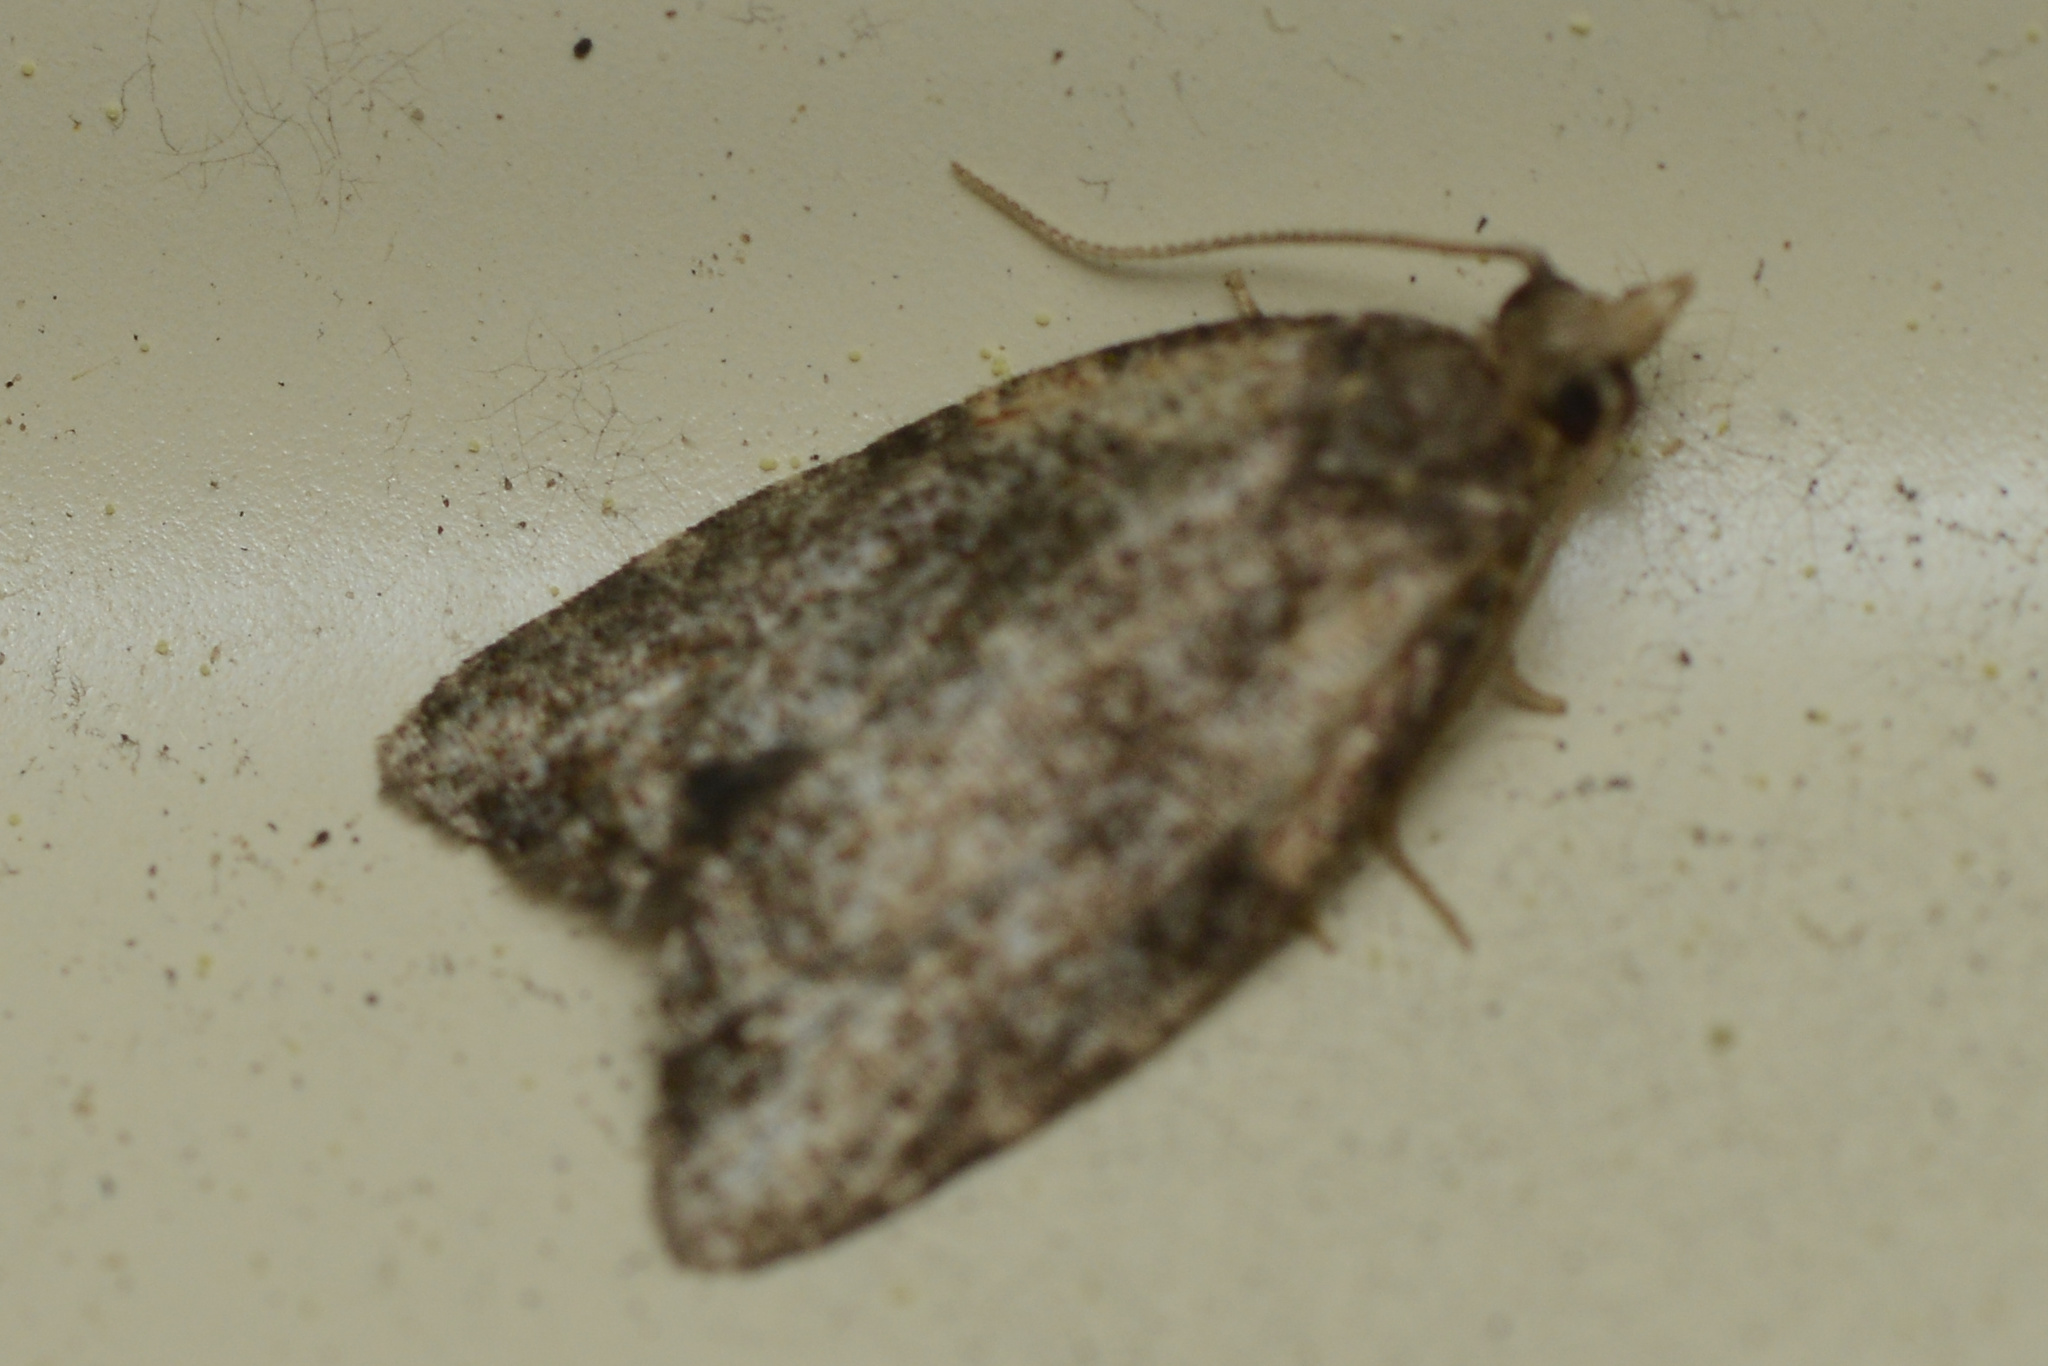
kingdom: Animalia
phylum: Arthropoda
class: Insecta
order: Lepidoptera
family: Tortricidae
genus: Capua
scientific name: Capua intractana
